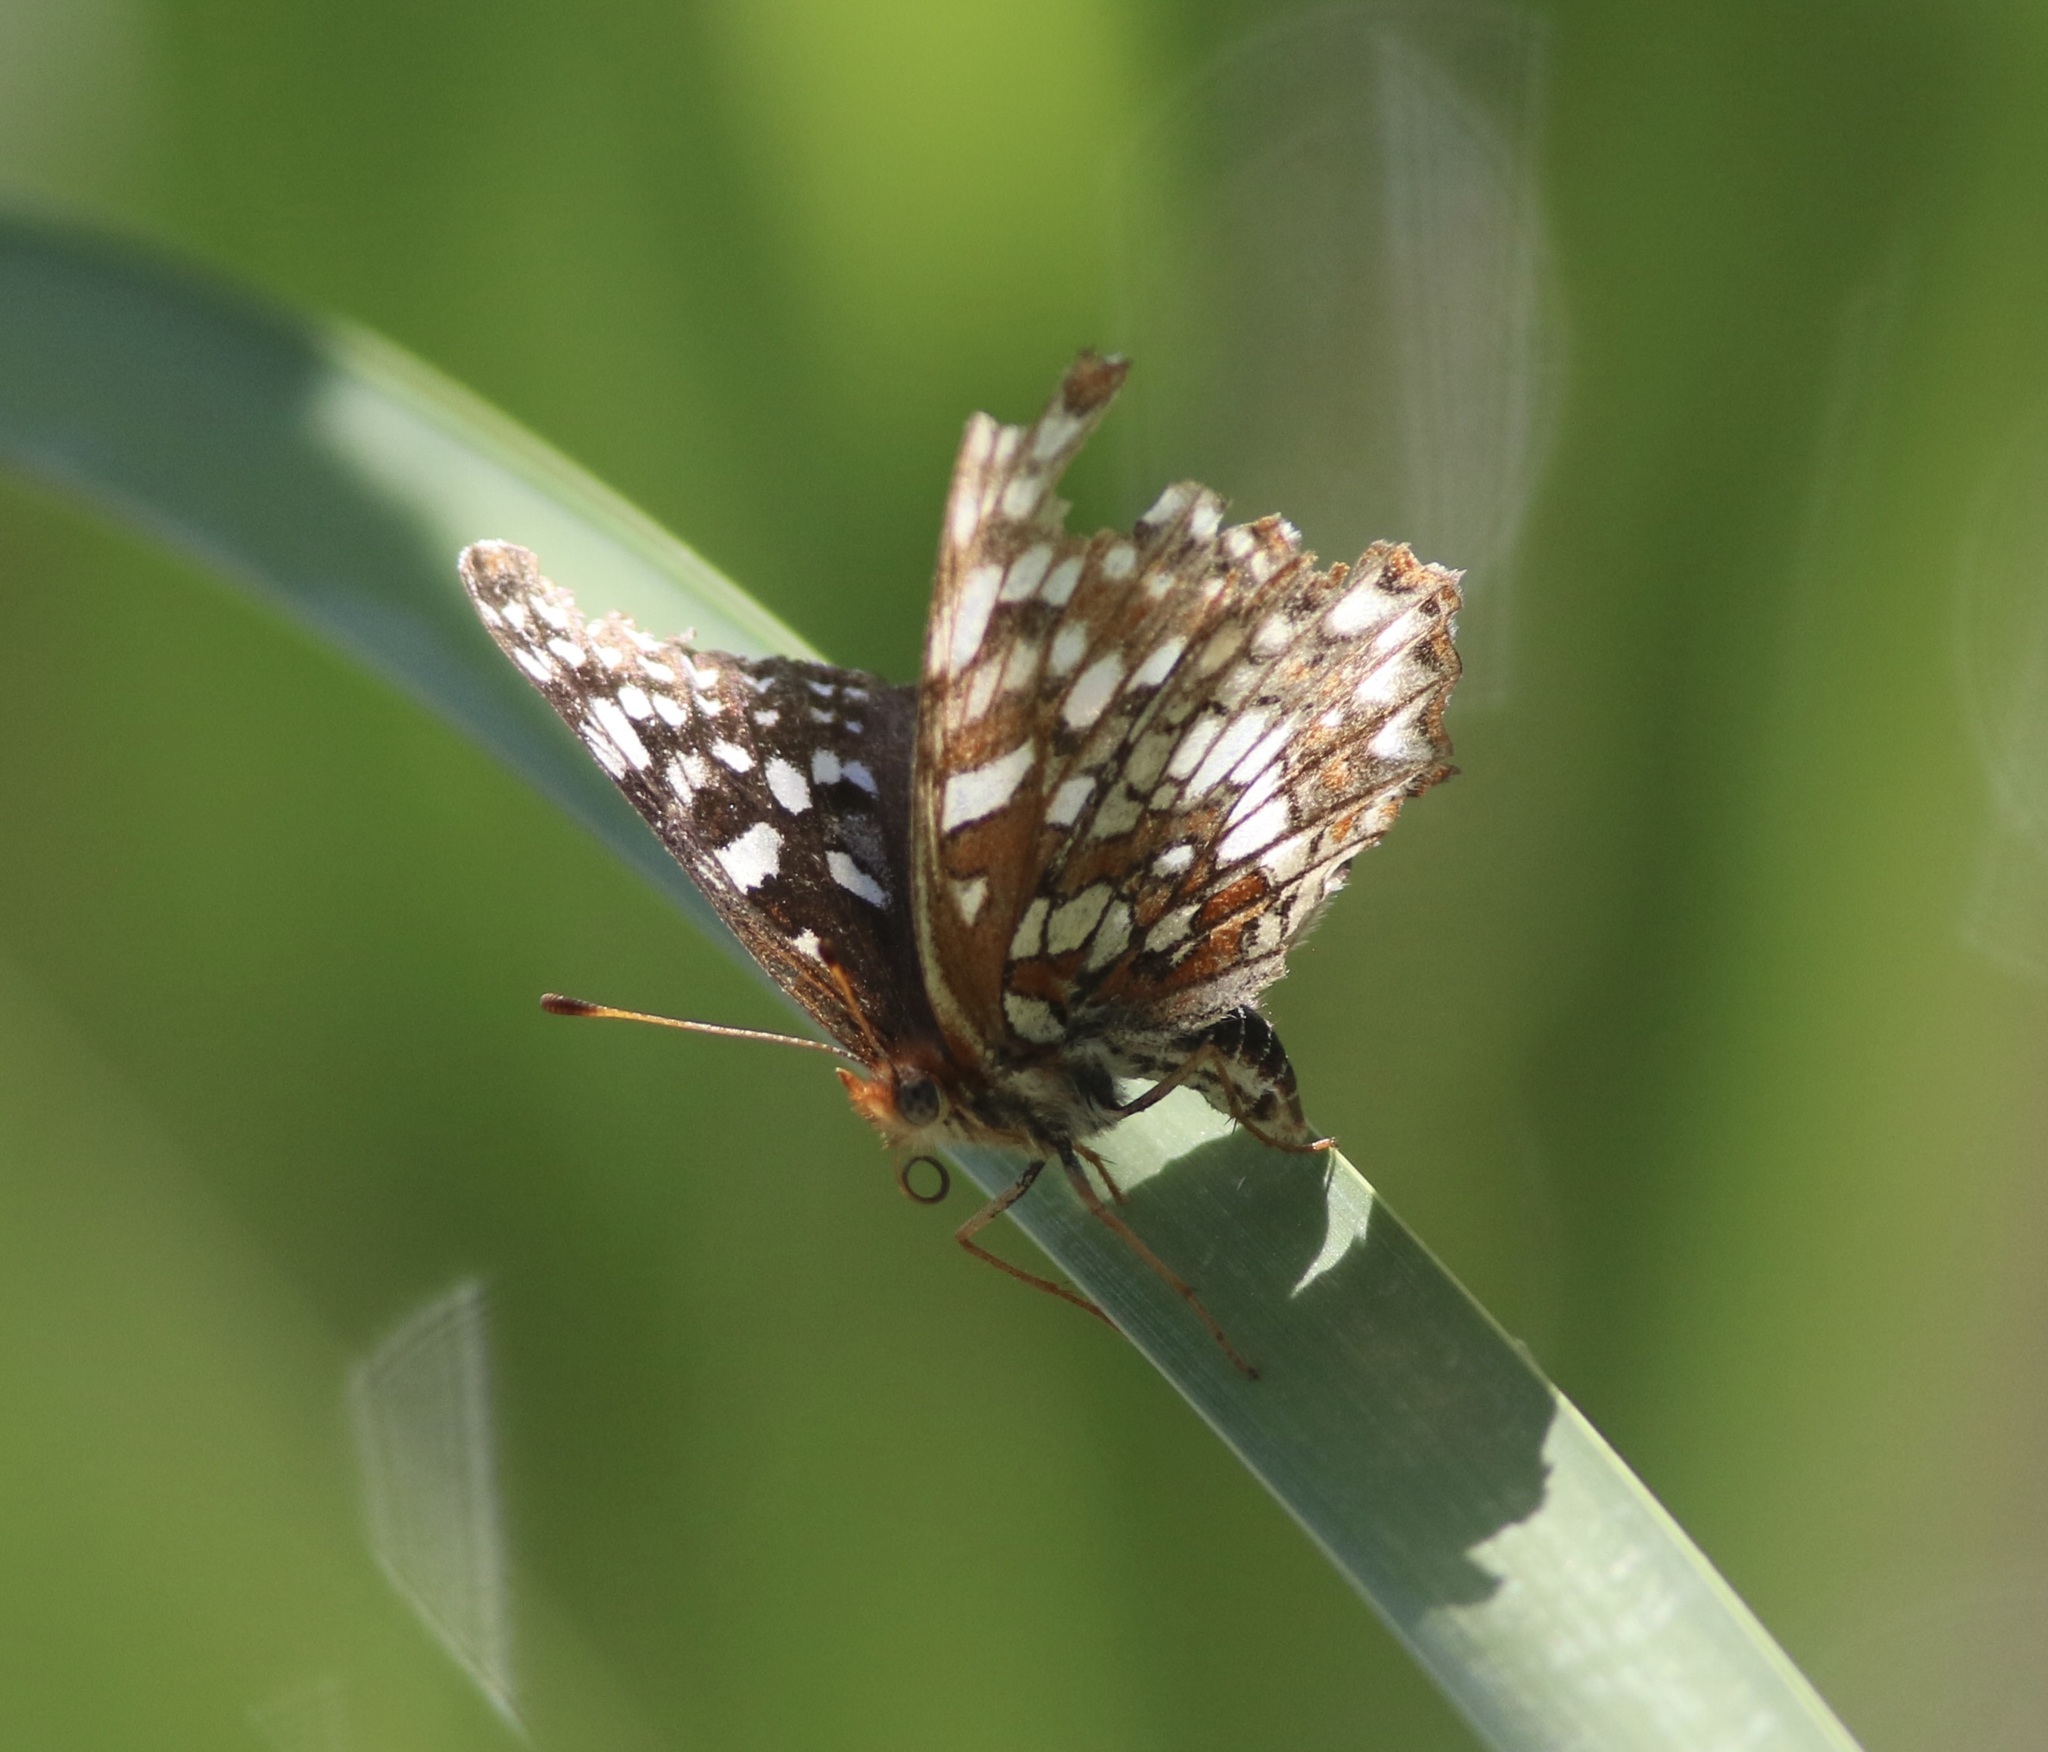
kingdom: Animalia
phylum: Arthropoda
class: Insecta
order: Lepidoptera
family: Nymphalidae
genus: Chlosyne
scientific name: Chlosyne palla
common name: Northern checkerspot
